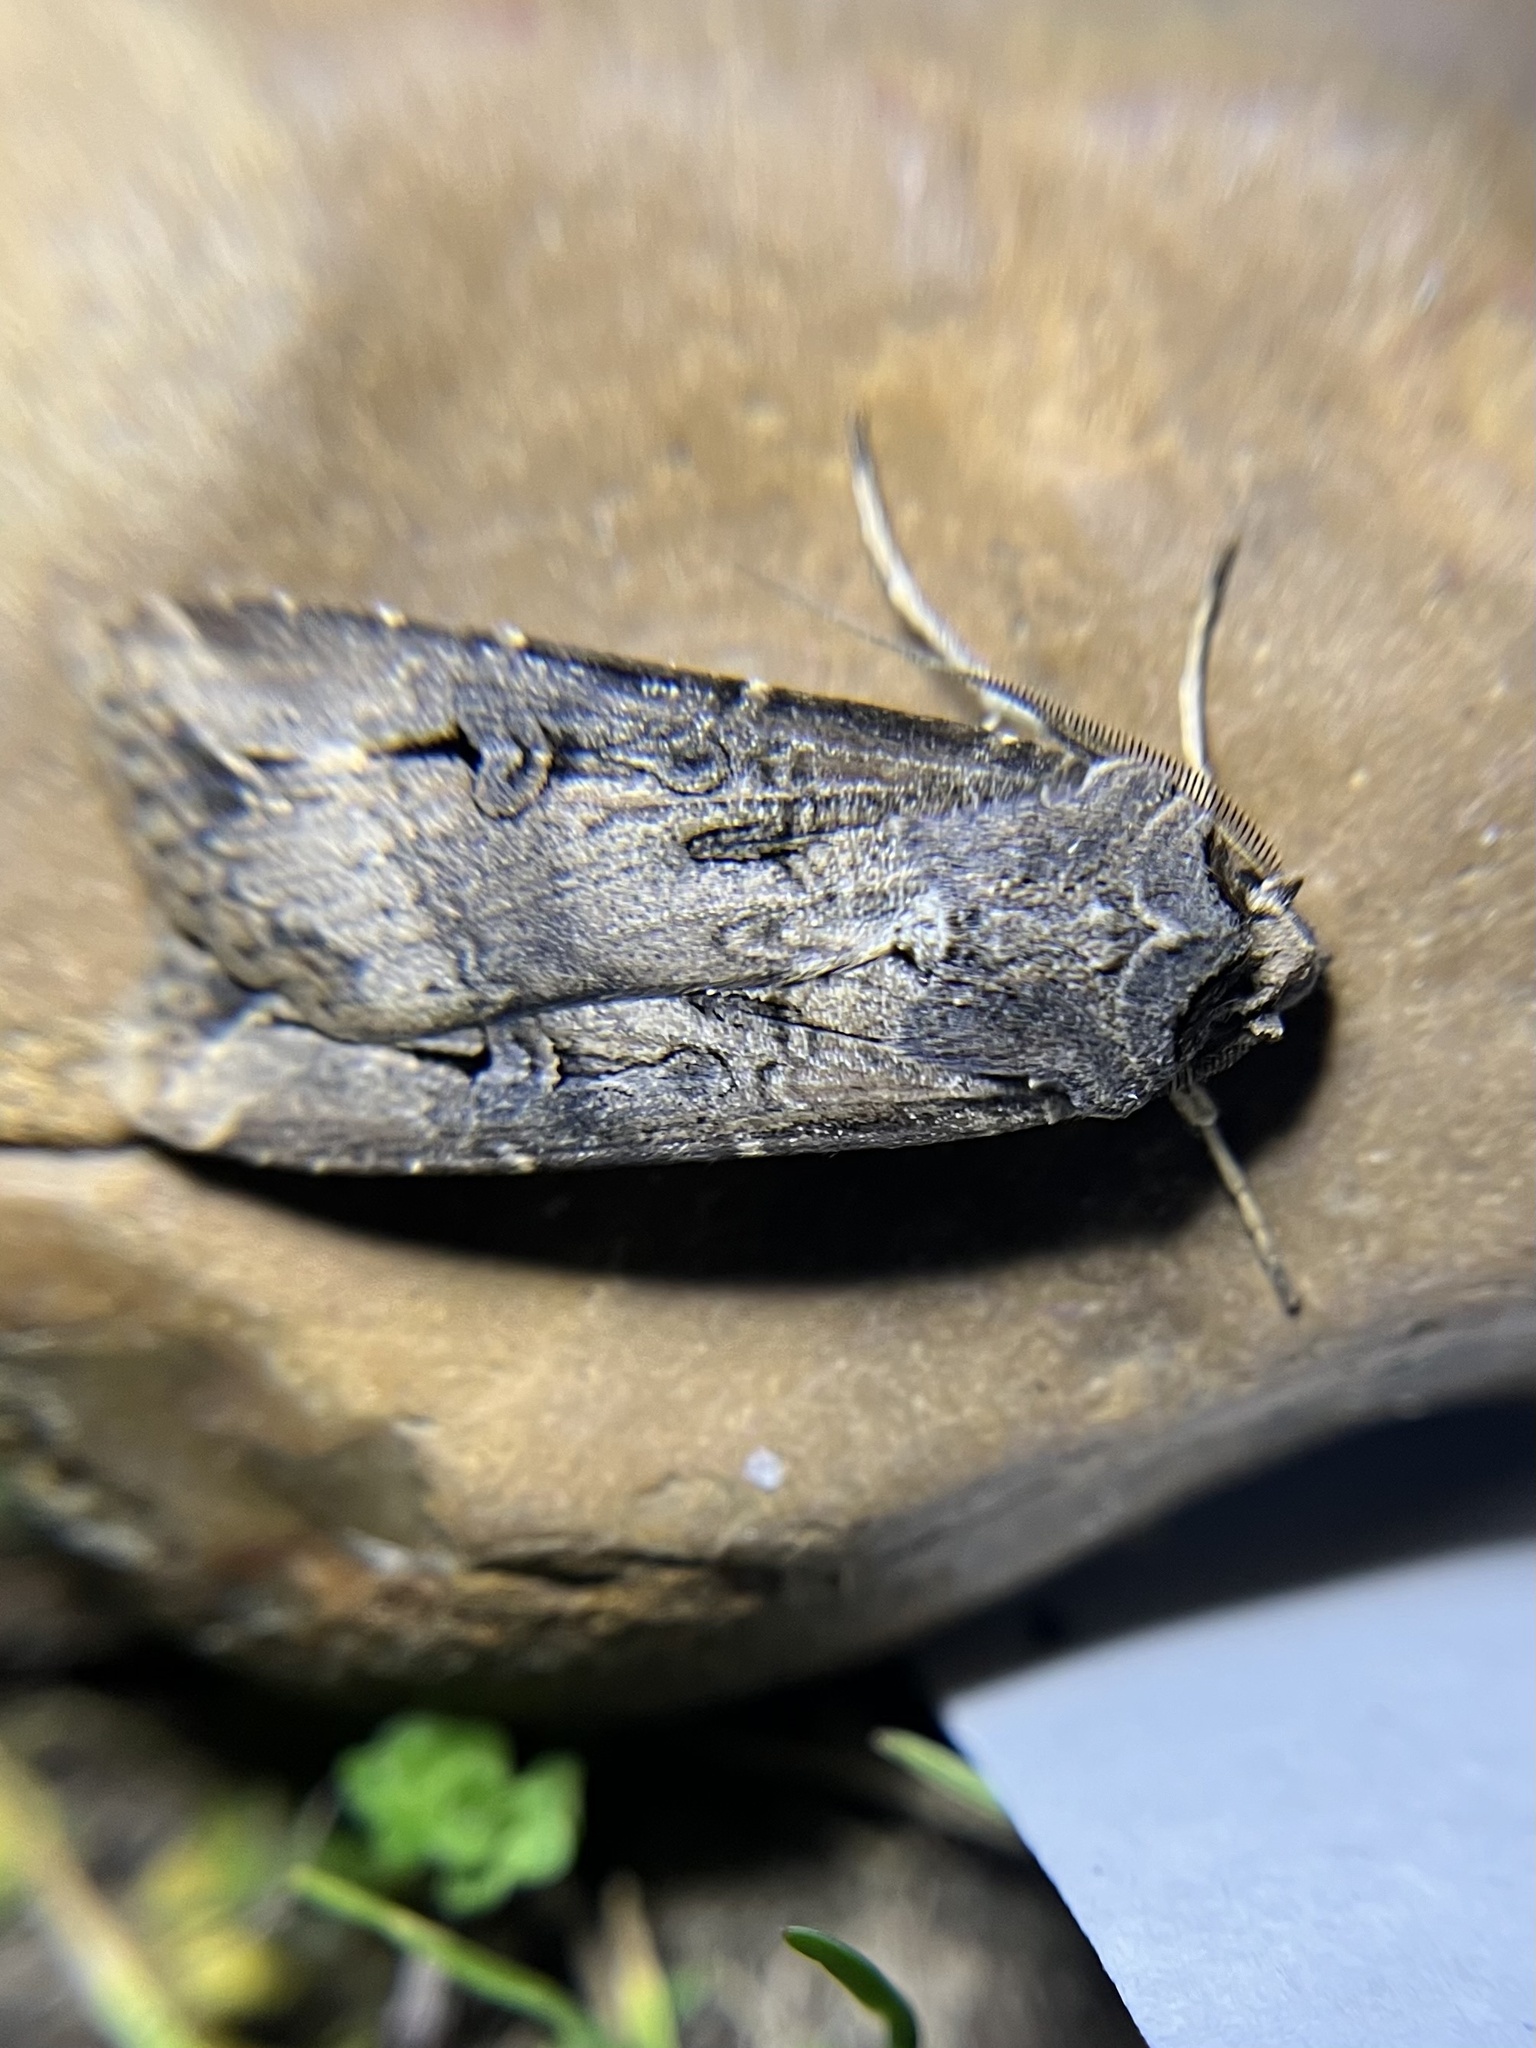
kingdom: Animalia
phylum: Arthropoda
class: Insecta
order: Lepidoptera
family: Noctuidae
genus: Agrotis
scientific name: Agrotis ipsilon
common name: Dark sword-grass
